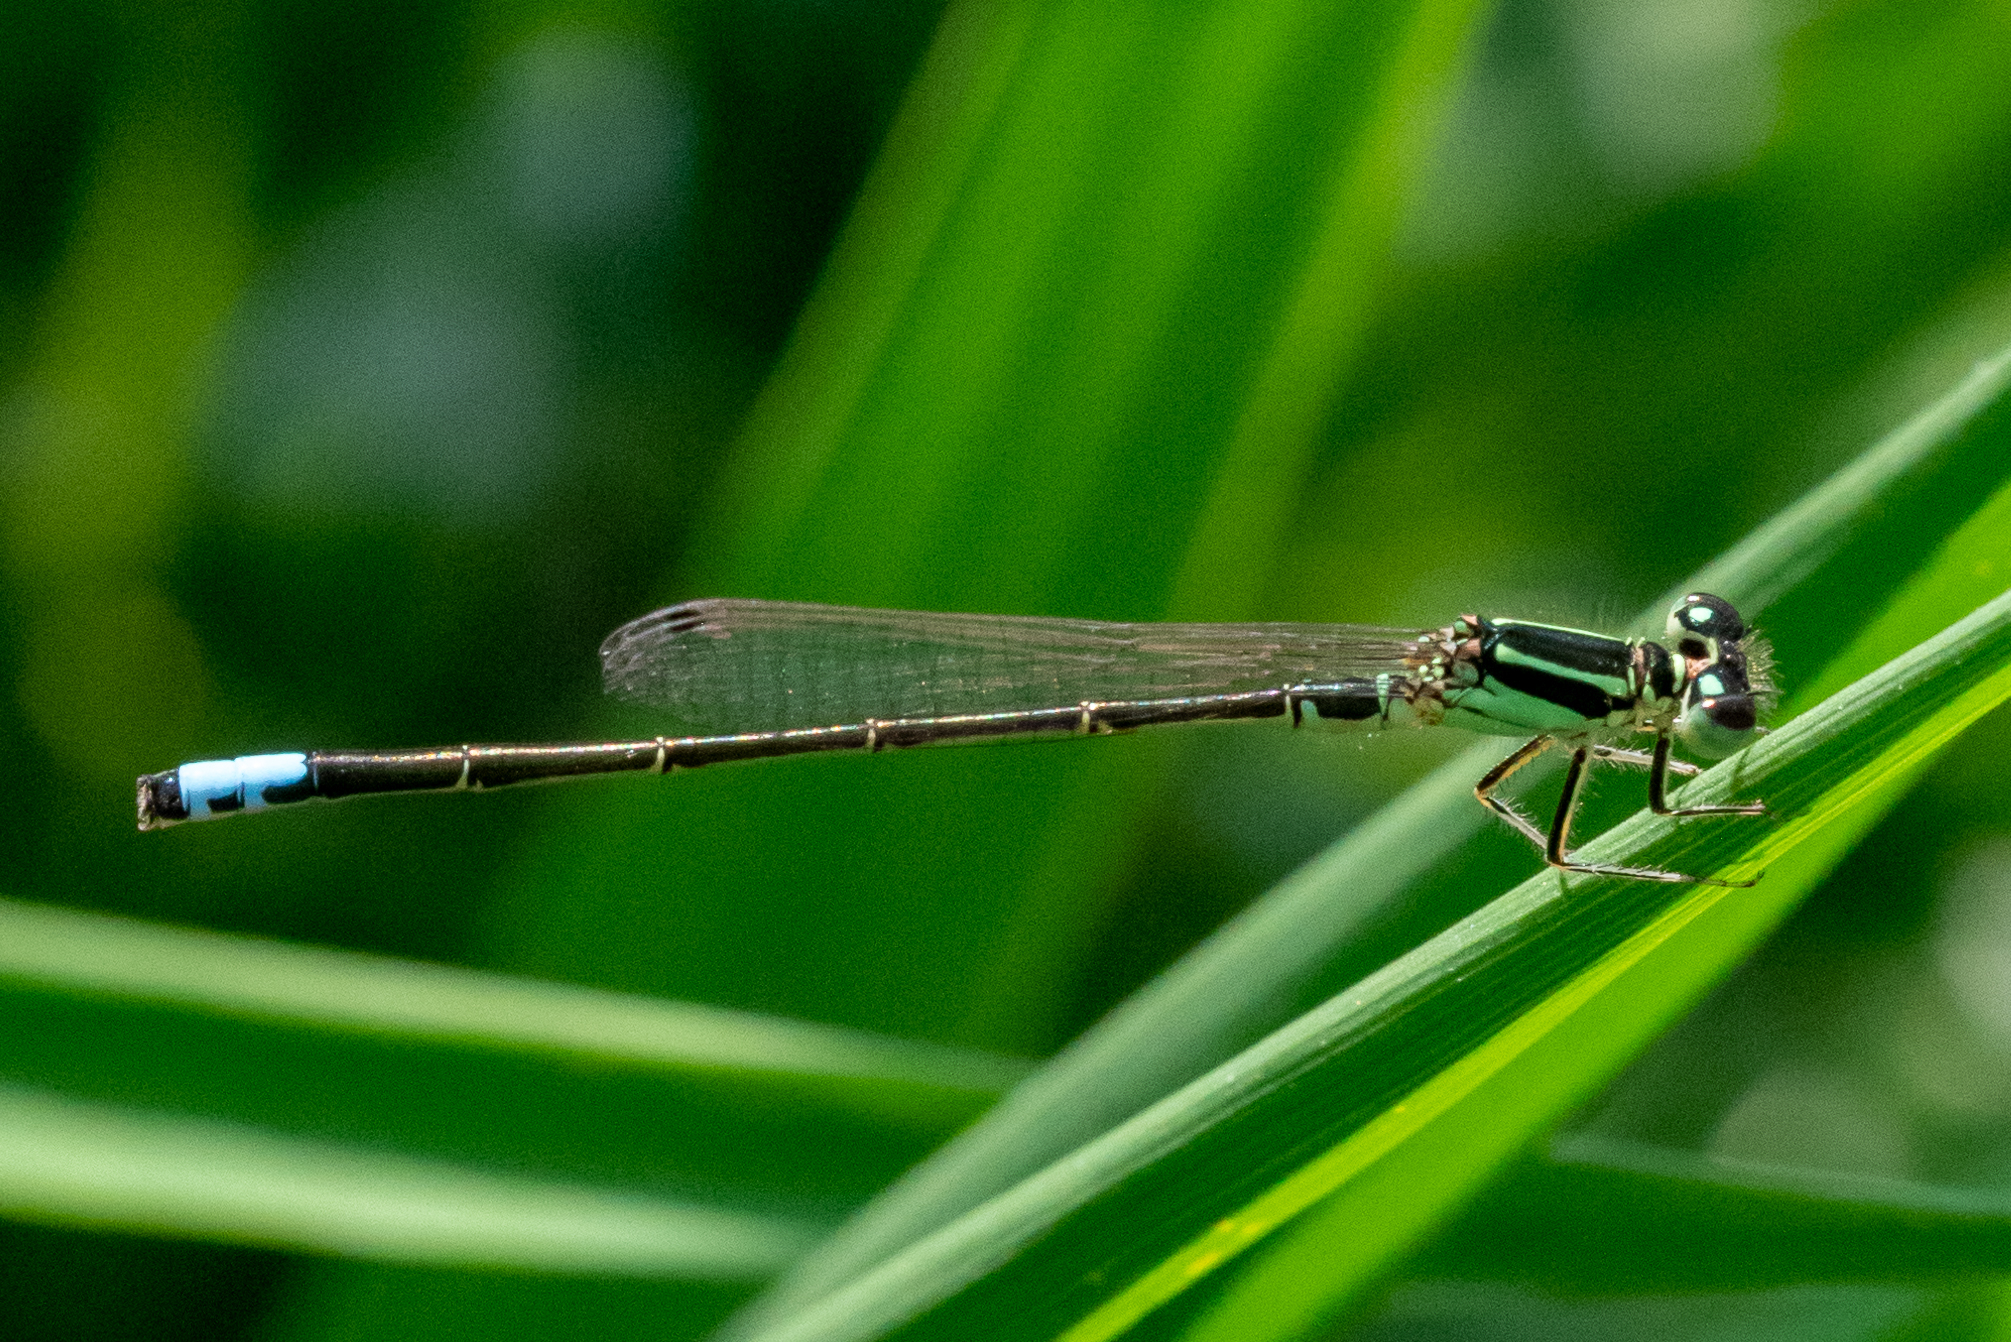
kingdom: Animalia
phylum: Arthropoda
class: Insecta
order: Odonata
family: Coenagrionidae
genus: Ischnura
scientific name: Ischnura verticalis
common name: Eastern forktail
